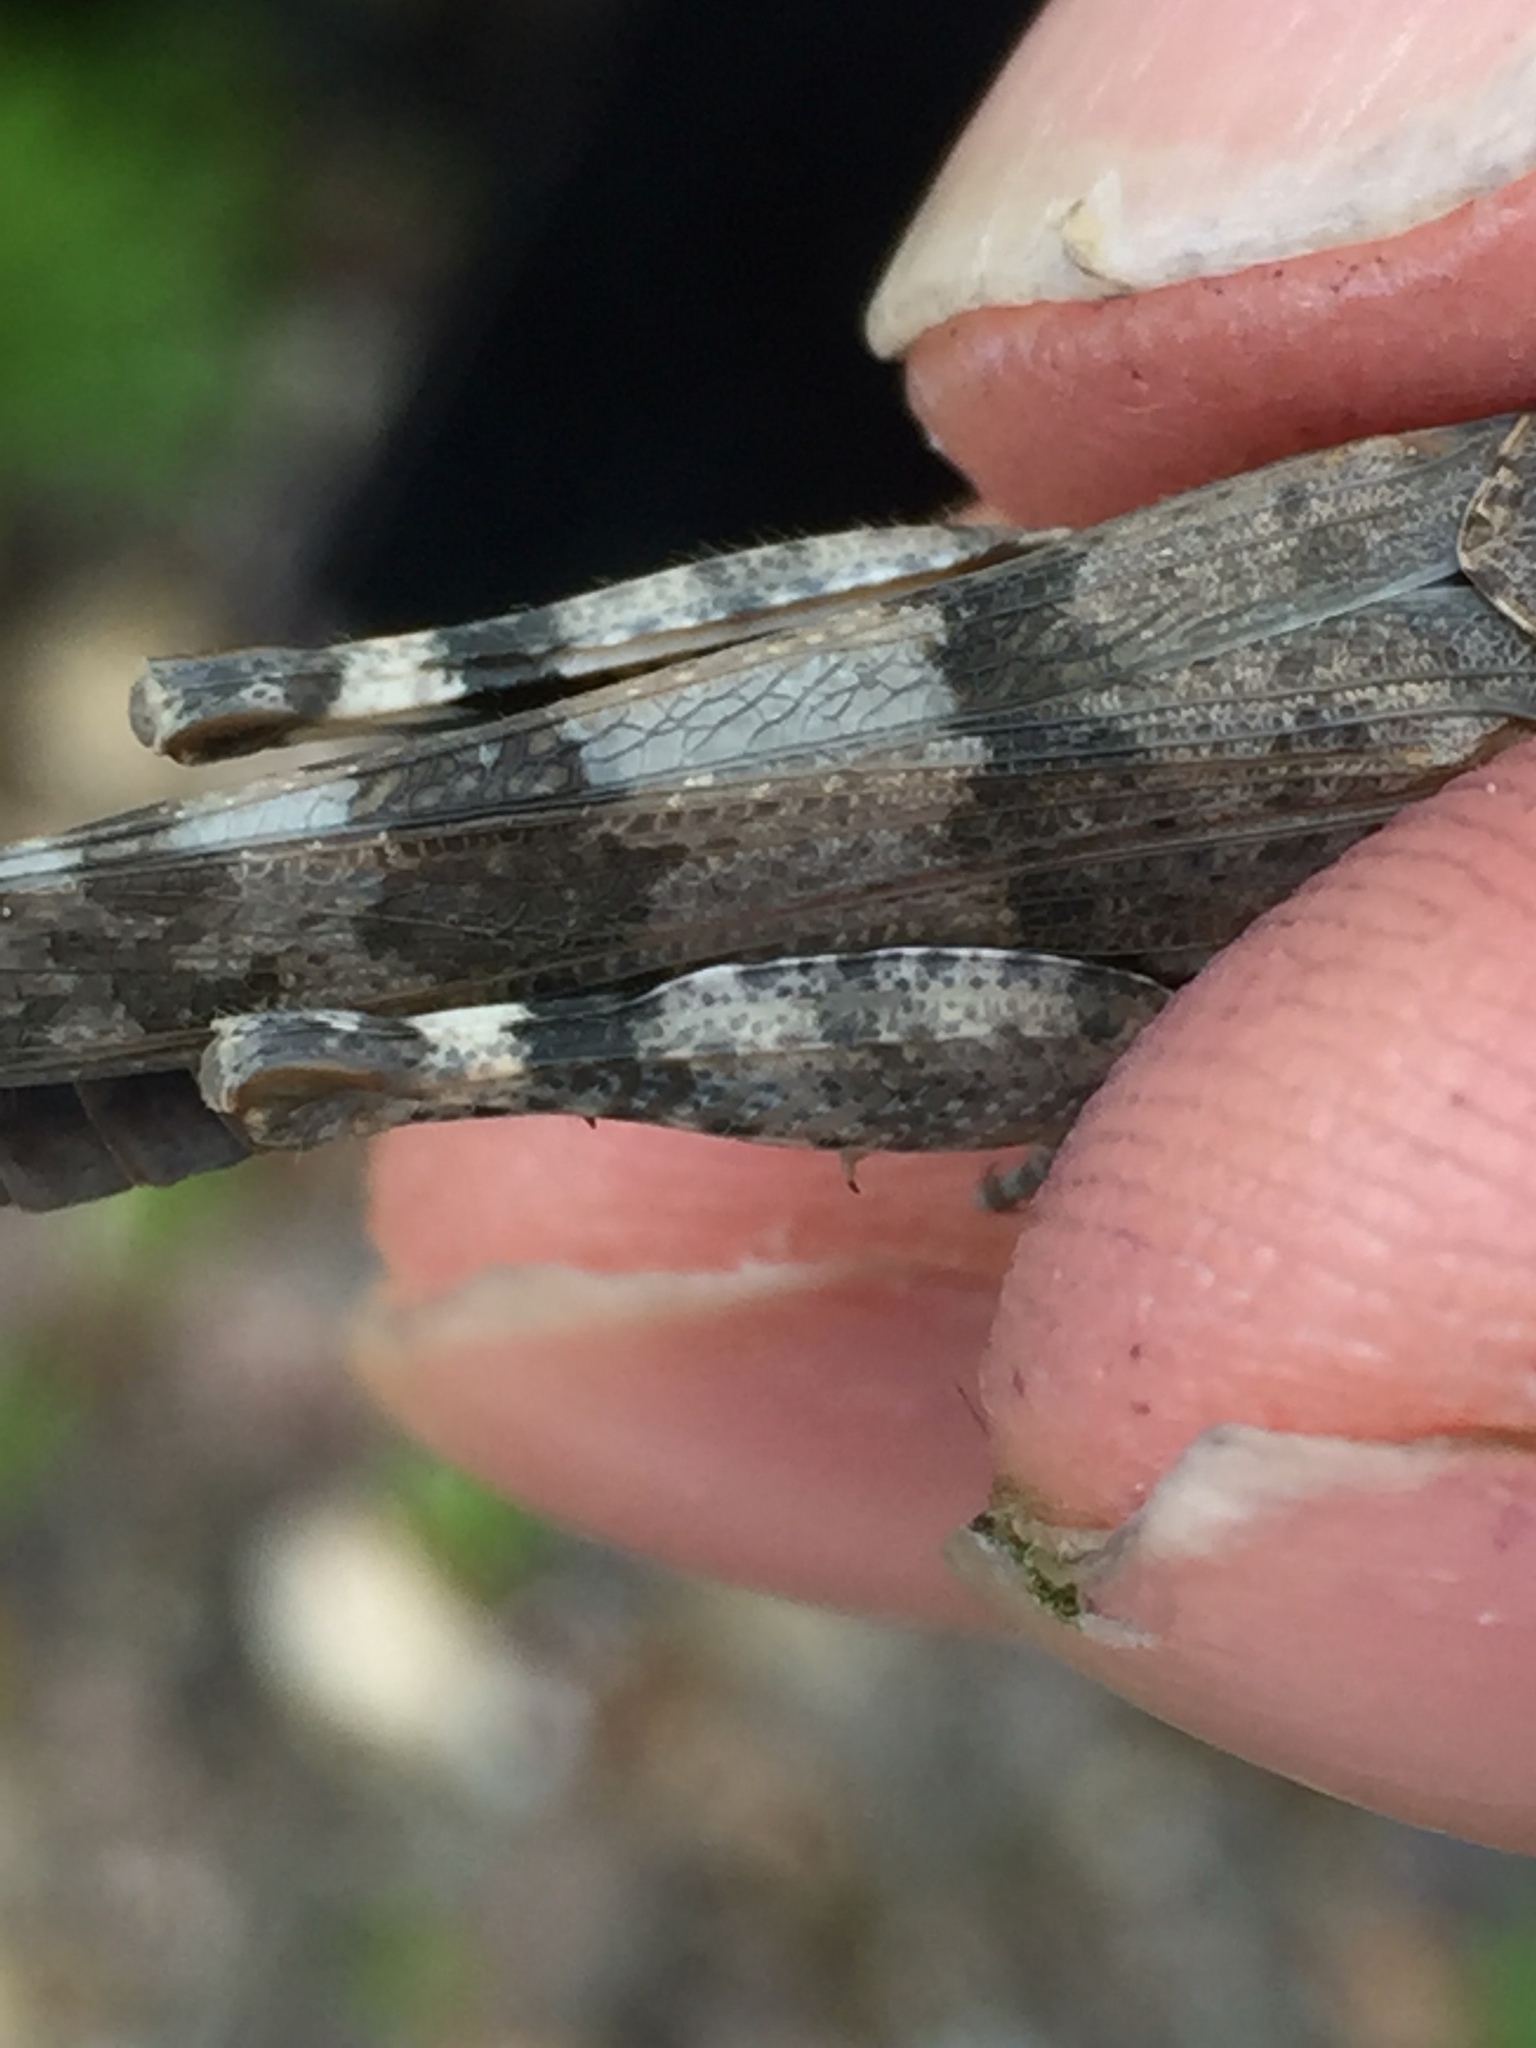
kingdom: Animalia
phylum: Arthropoda
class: Insecta
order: Orthoptera
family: Acrididae
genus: Oedipoda
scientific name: Oedipoda caerulescens
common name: Blue-winged grasshopper
